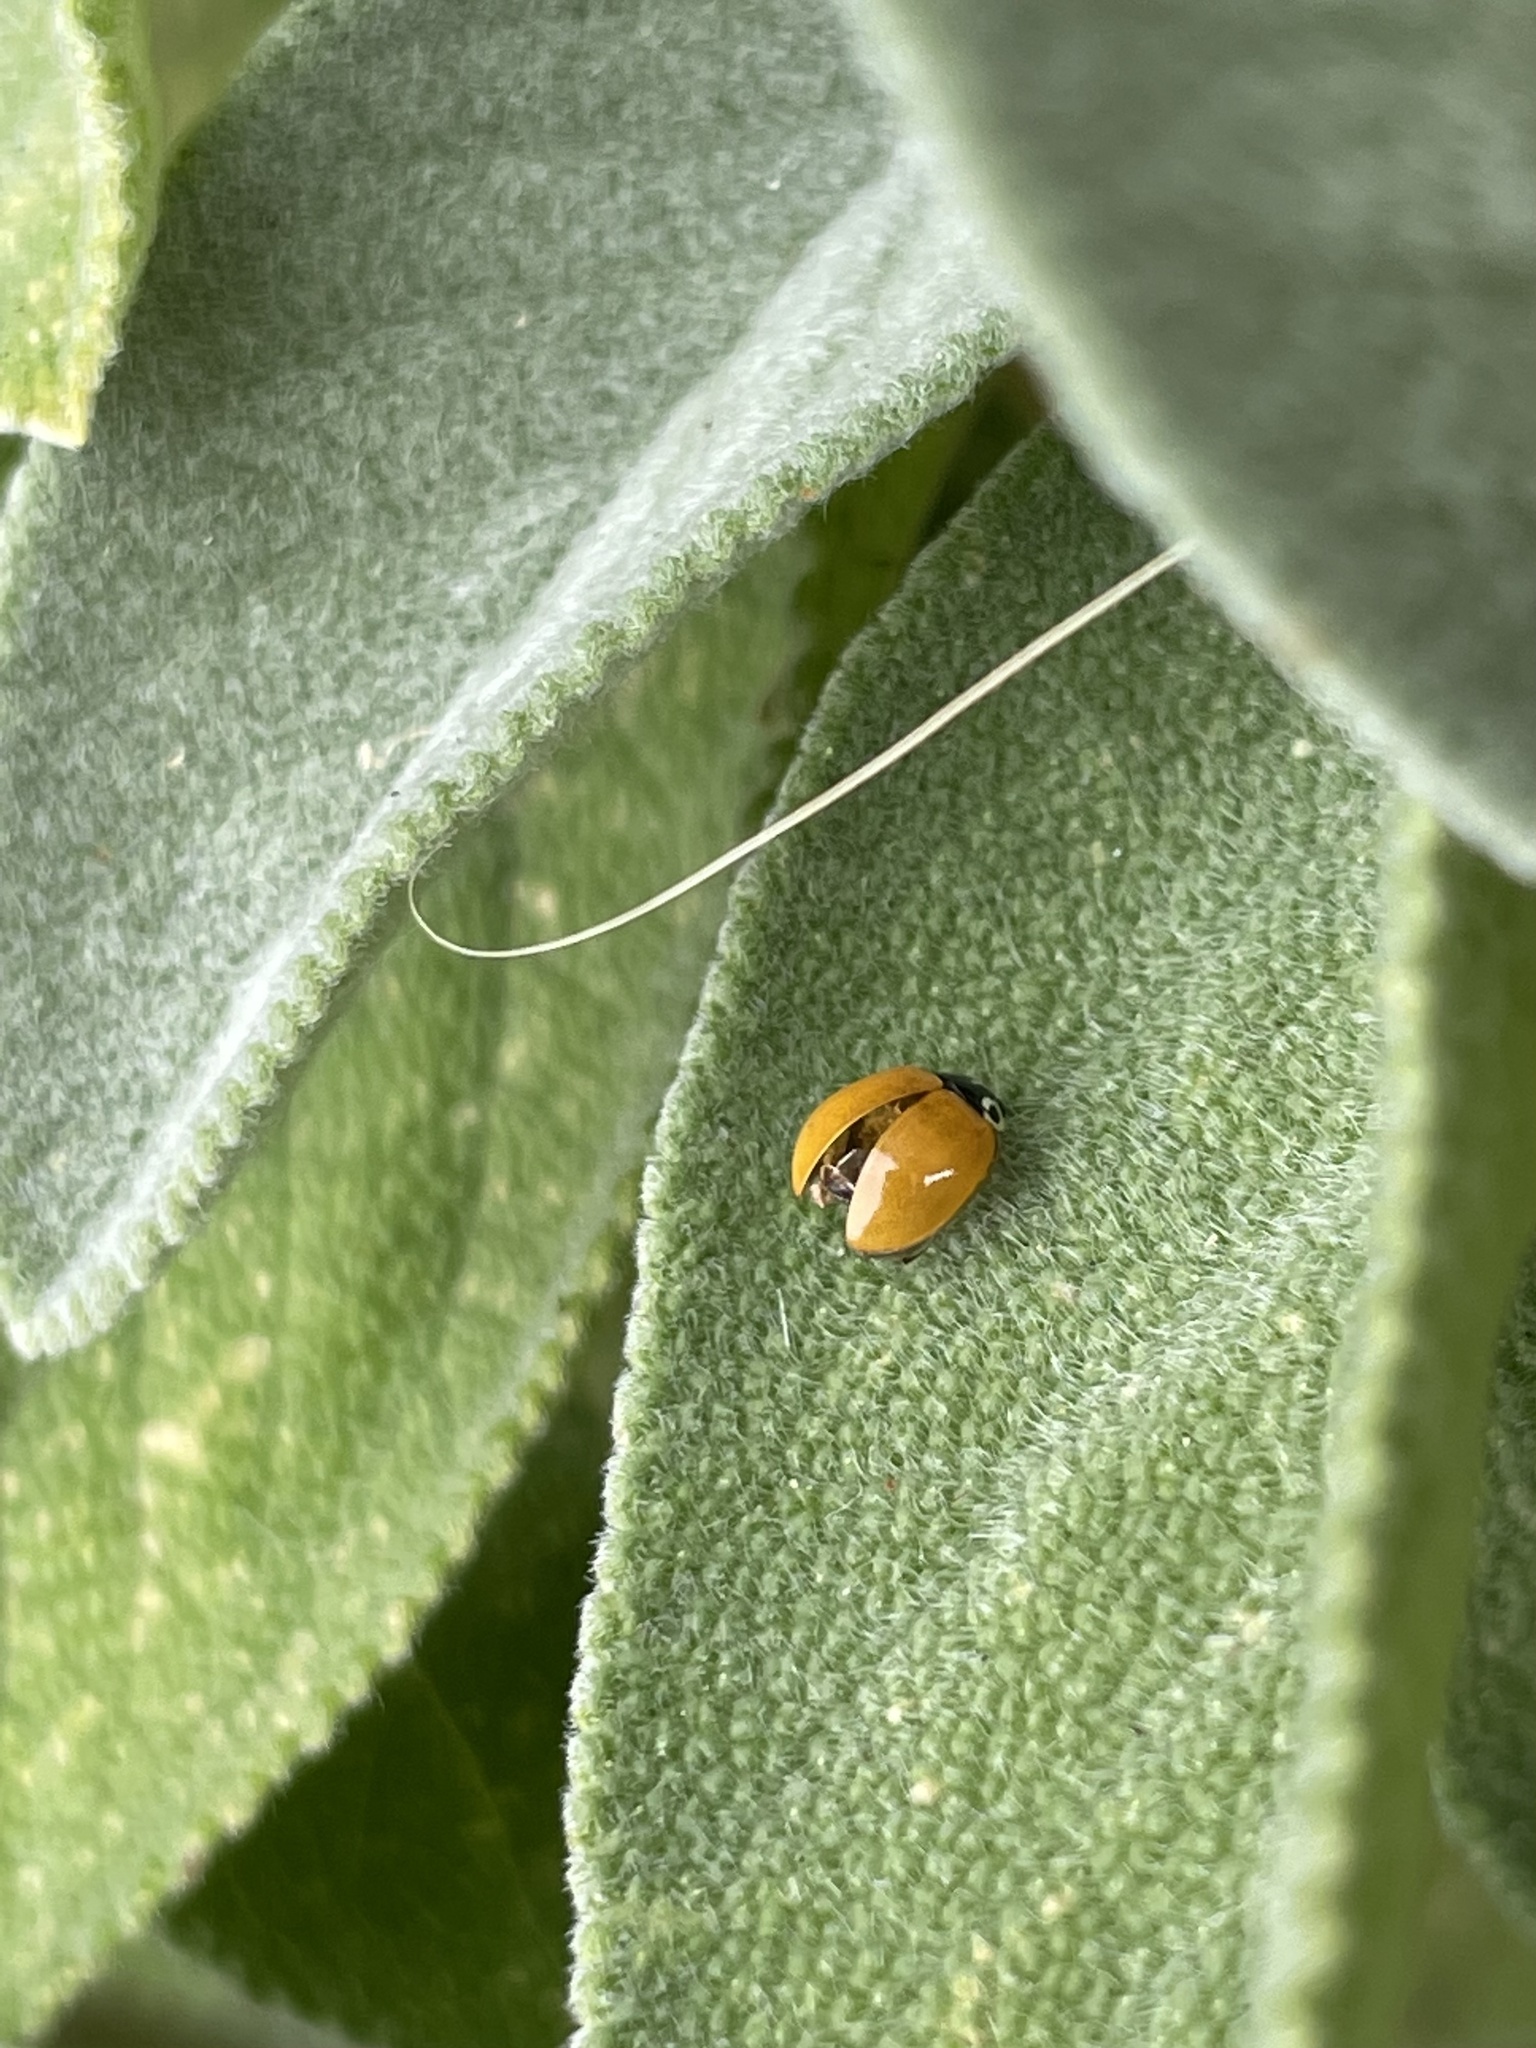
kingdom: Animalia
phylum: Arthropoda
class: Insecta
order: Coleoptera
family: Coccinellidae
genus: Cycloneda
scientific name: Cycloneda polita
